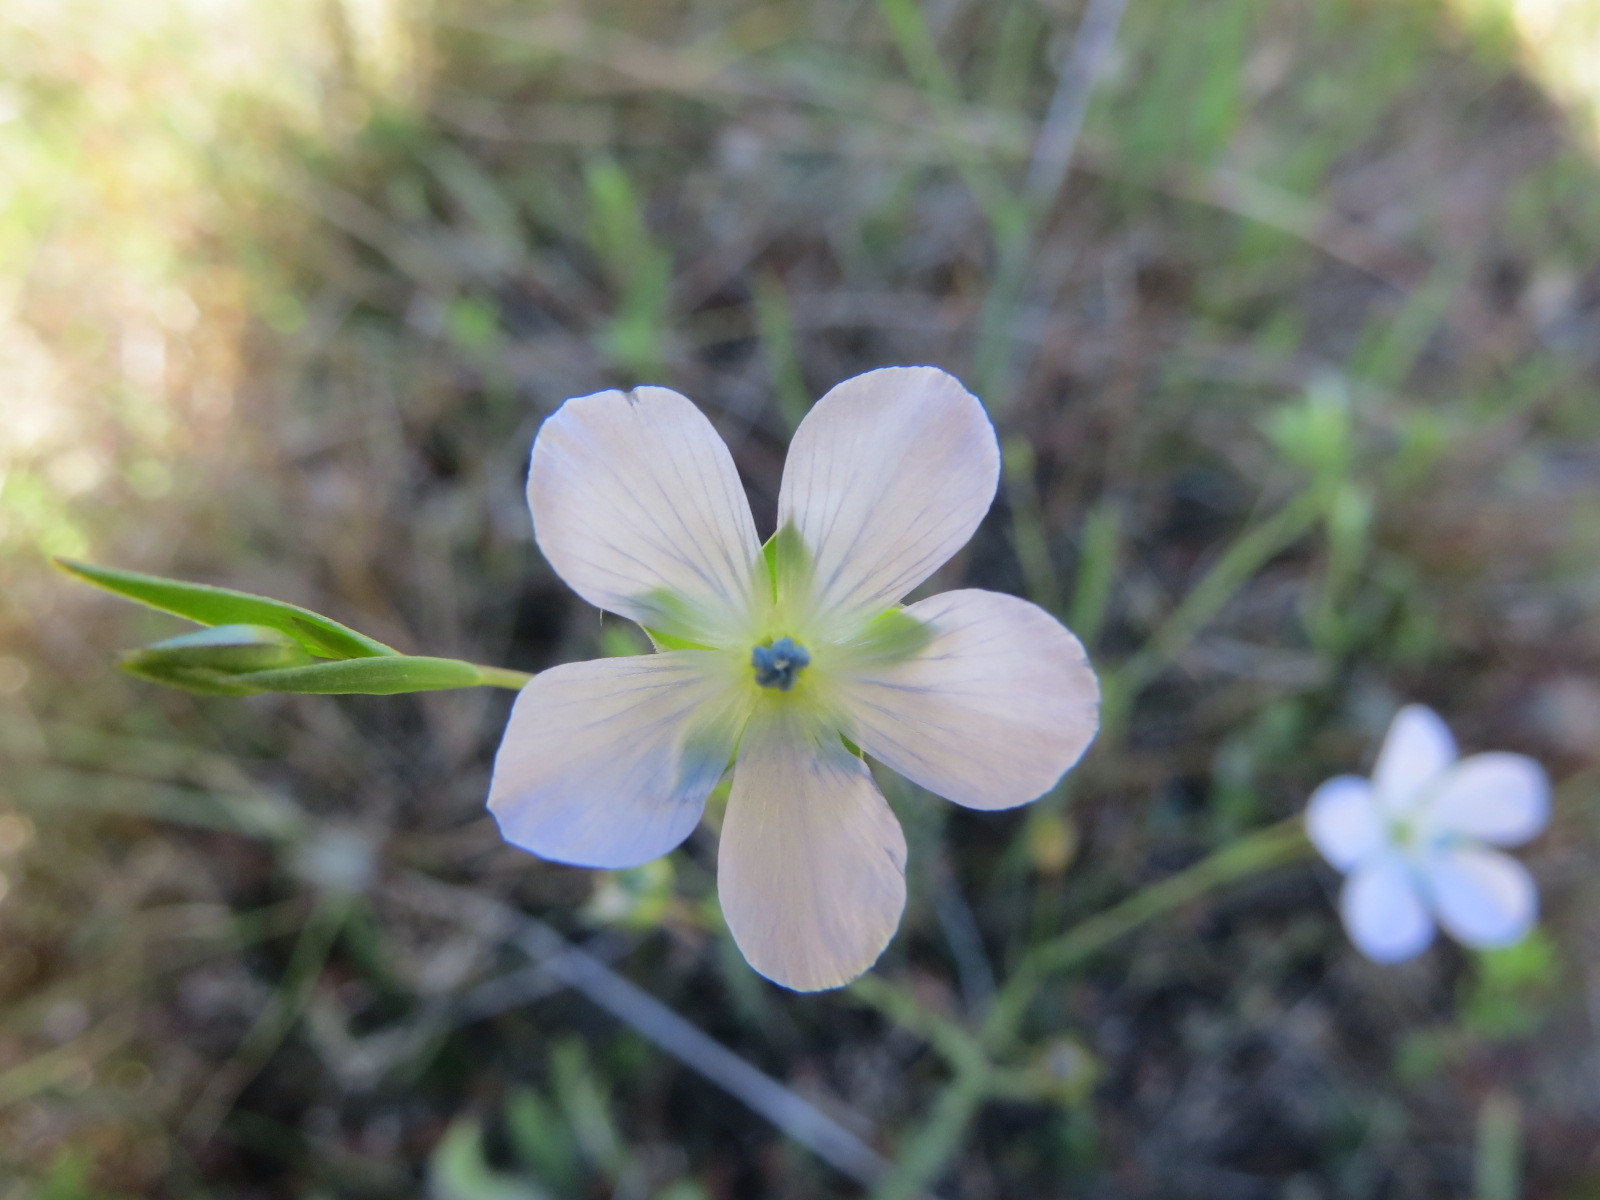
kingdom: Plantae
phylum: Tracheophyta
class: Magnoliopsida
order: Malpighiales
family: Linaceae
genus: Linum
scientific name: Linum bienne
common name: Pale flax
